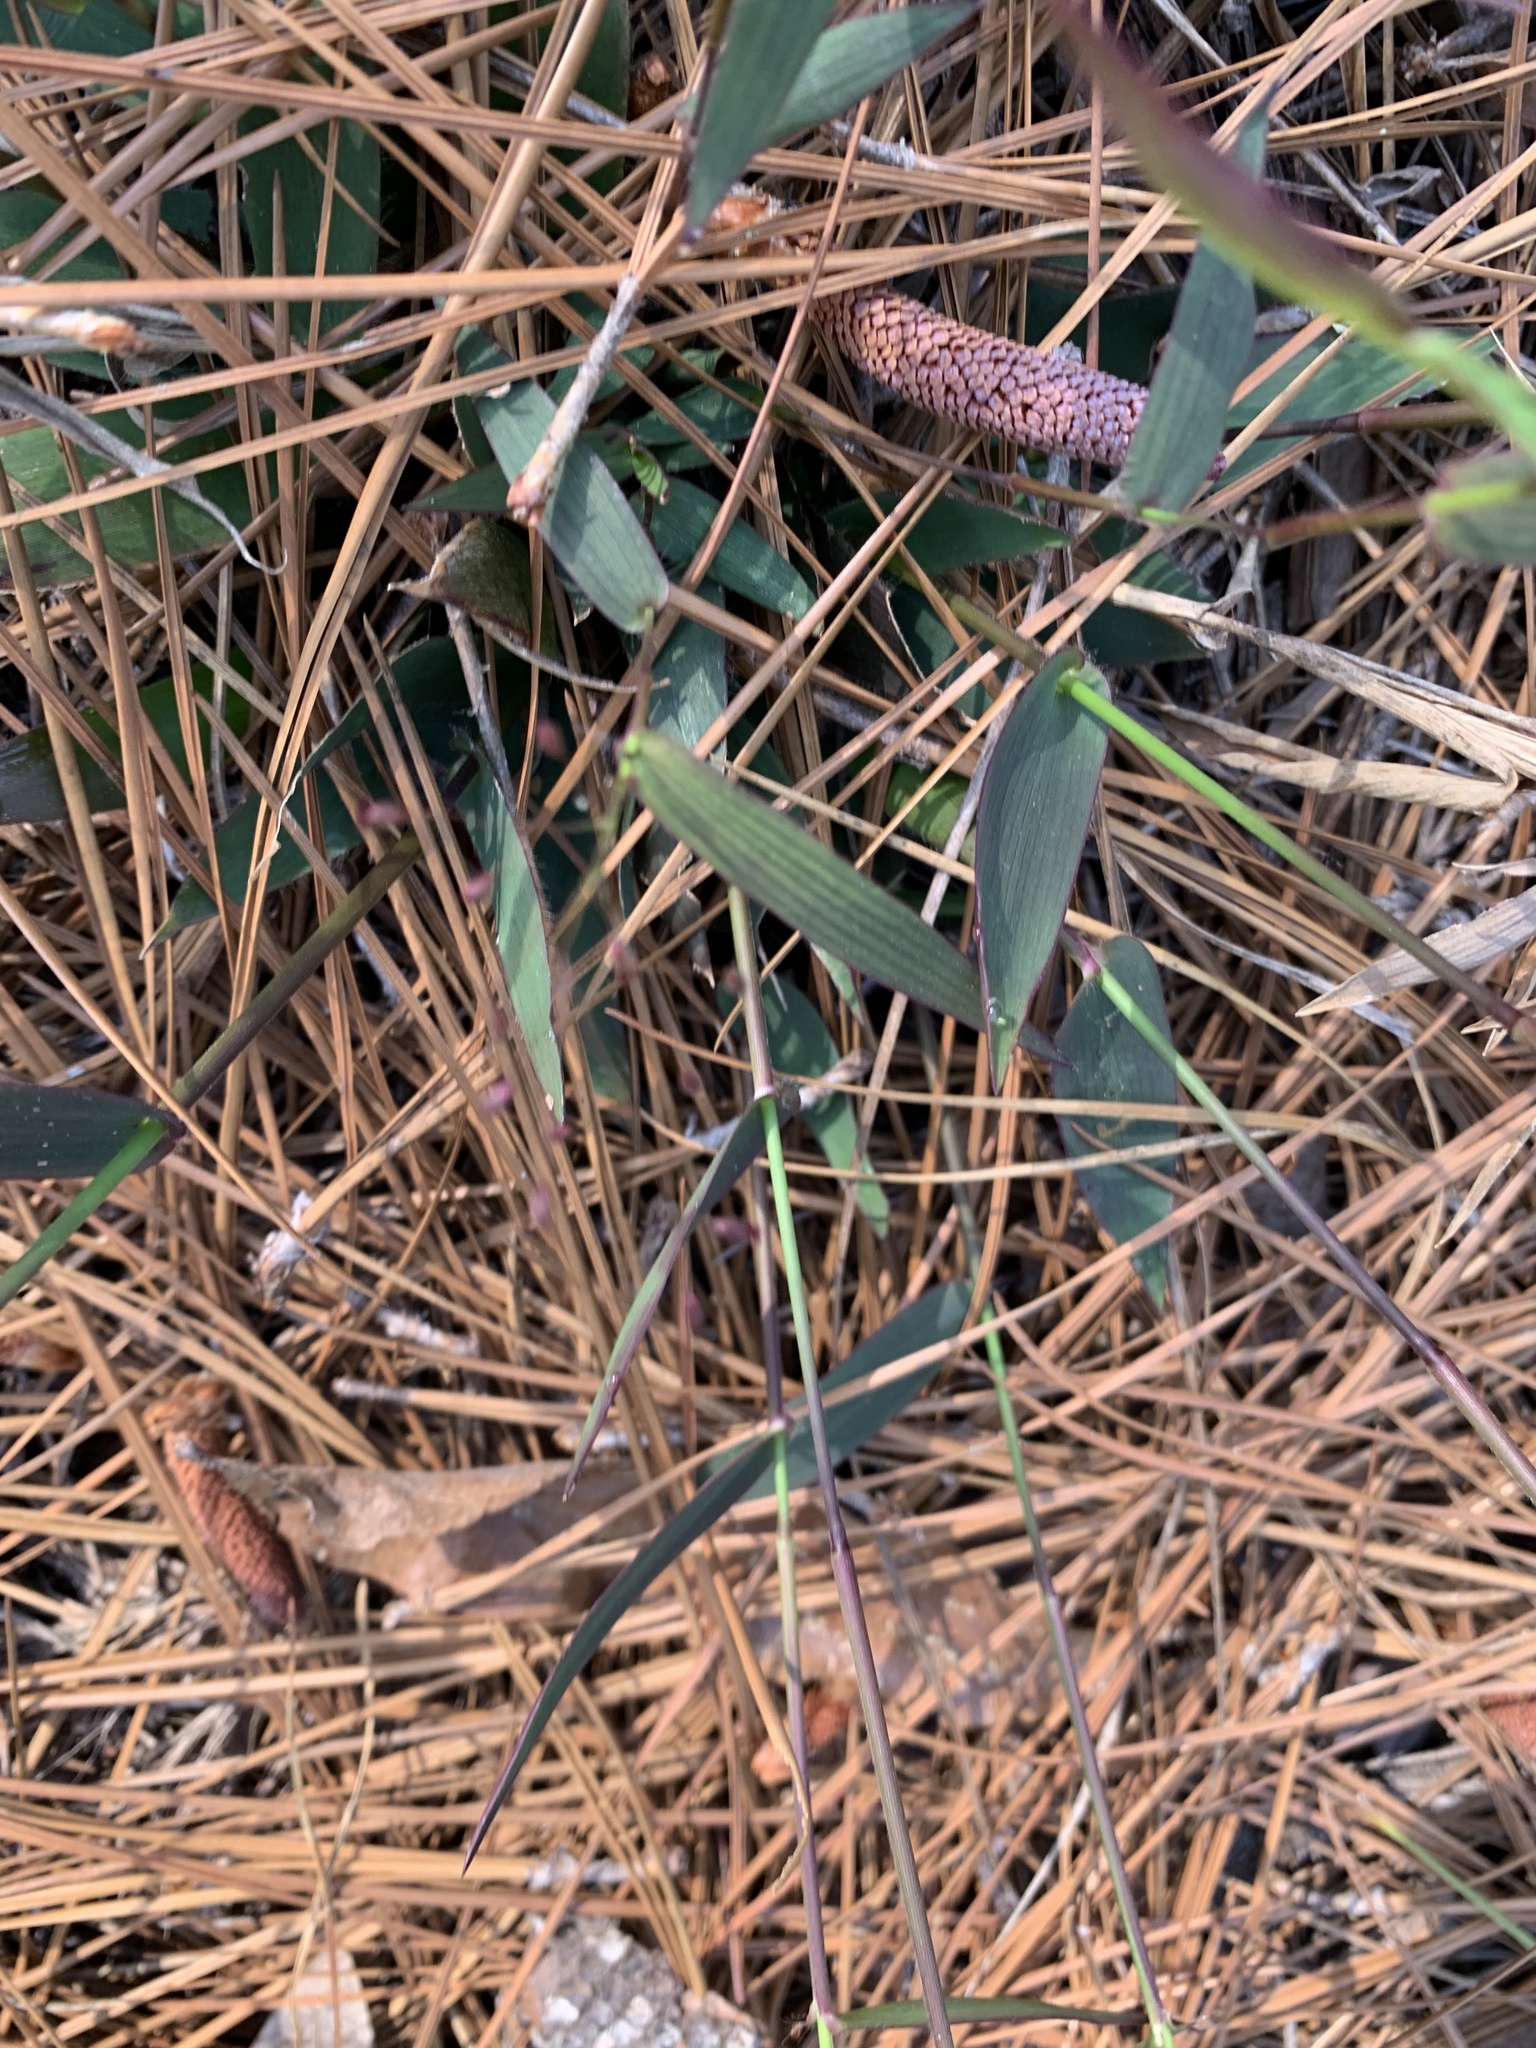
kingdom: Plantae
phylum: Tracheophyta
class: Liliopsida
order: Poales
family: Poaceae
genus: Dichanthelium
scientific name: Dichanthelium commutatum
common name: Variable witchgrass
